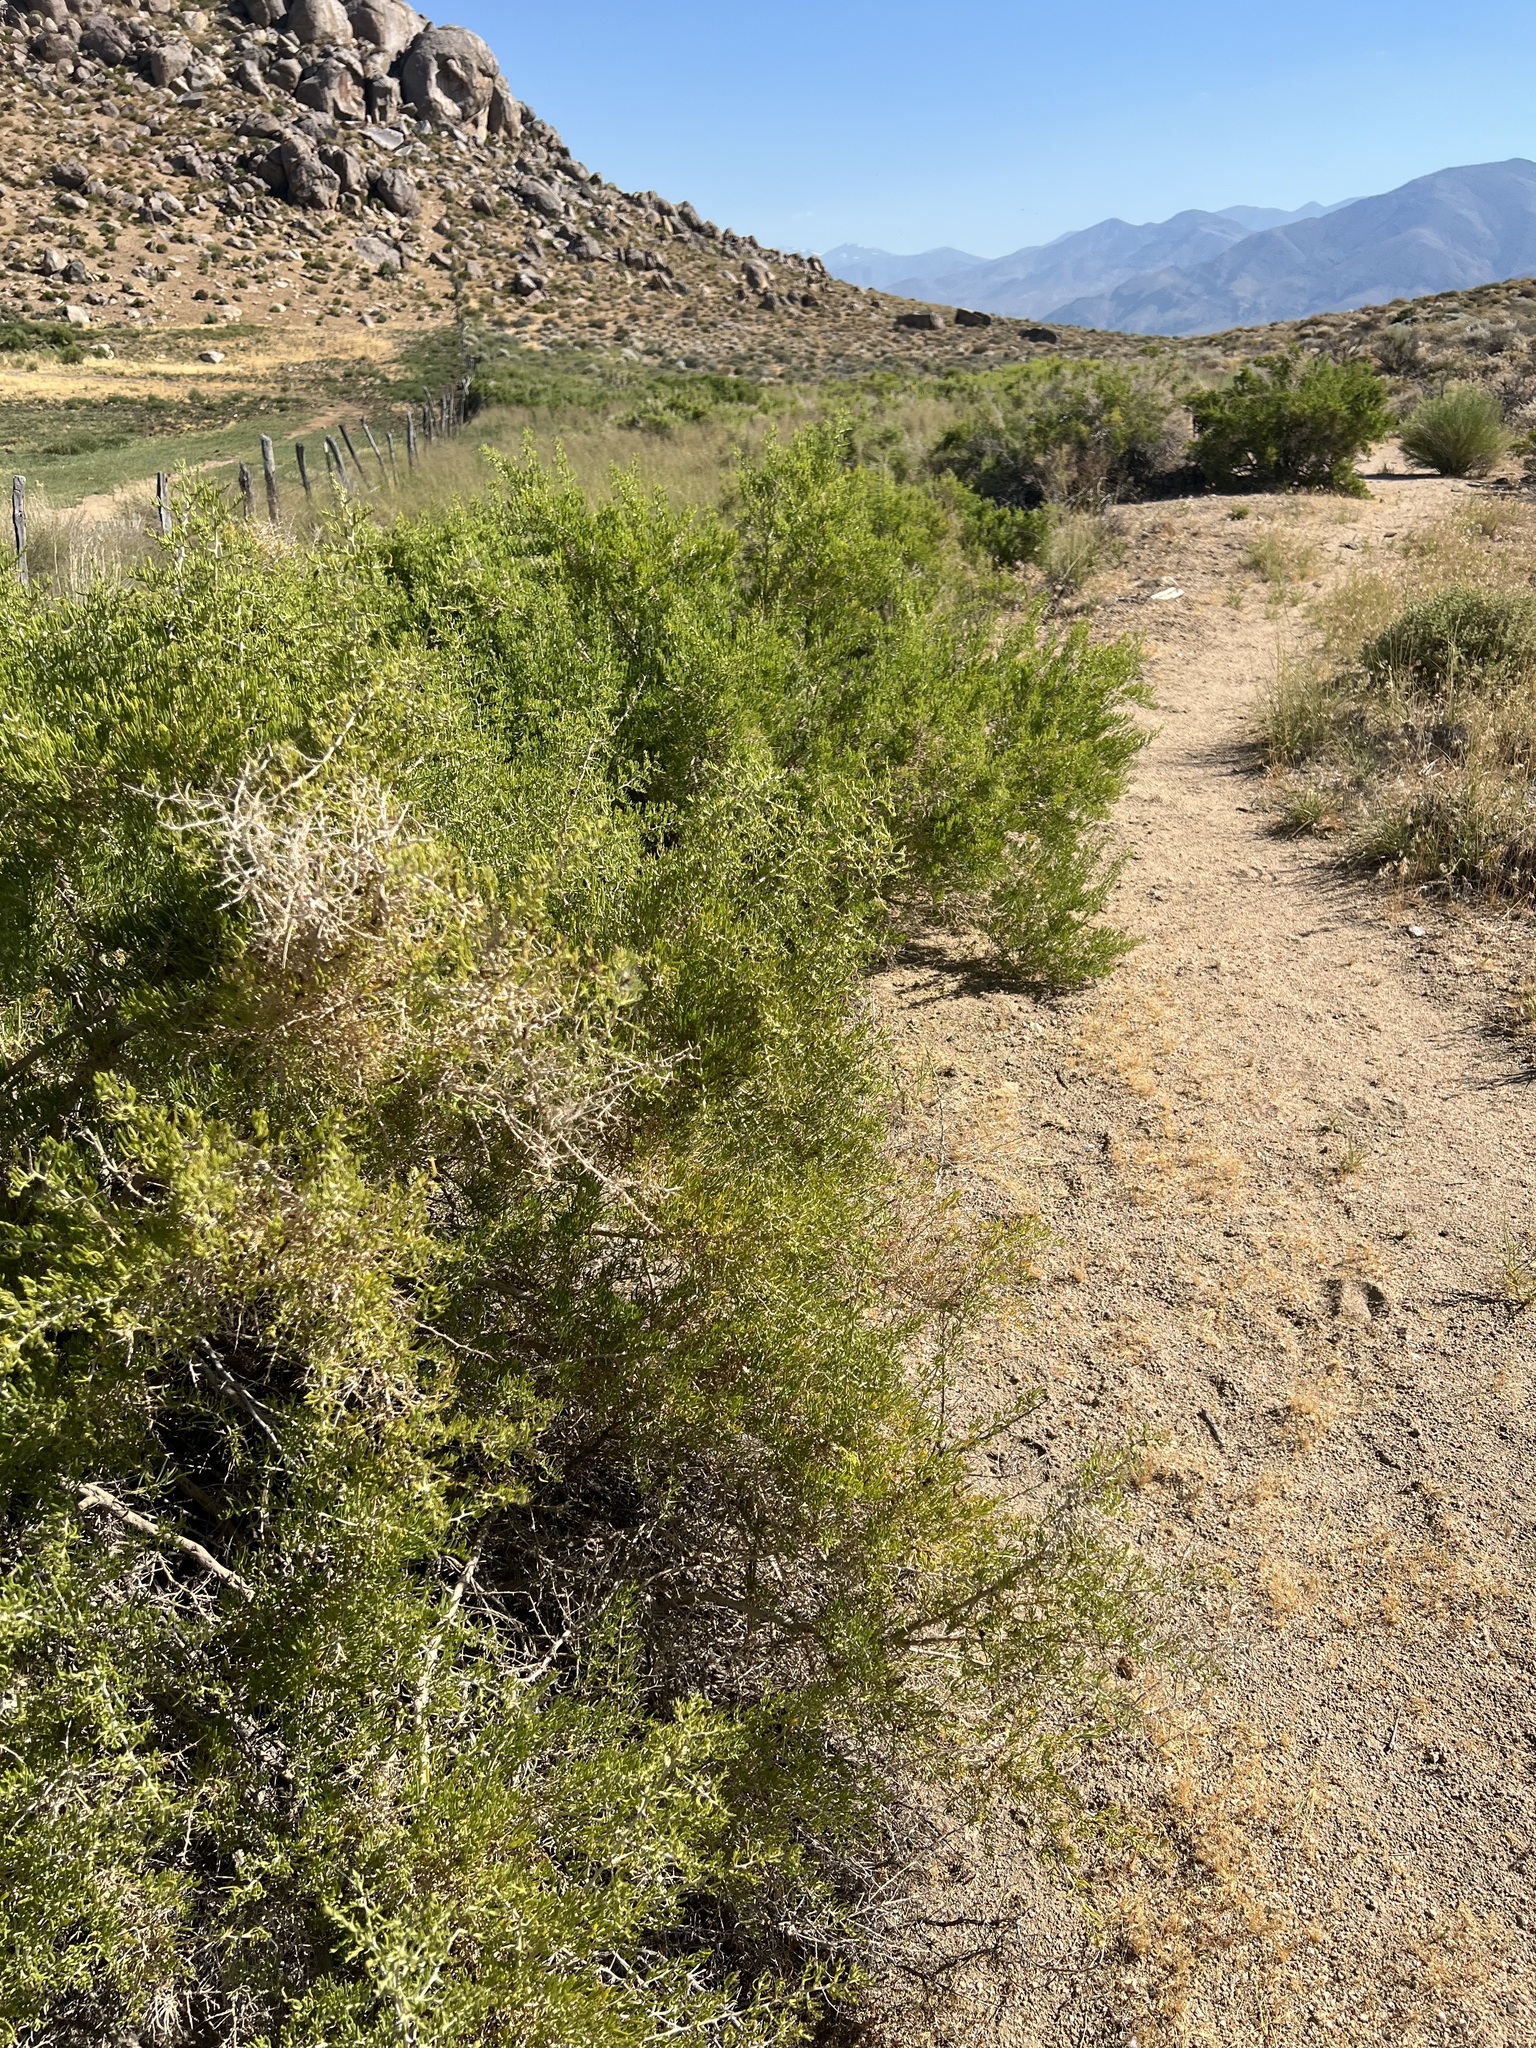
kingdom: Plantae
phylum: Tracheophyta
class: Magnoliopsida
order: Caryophyllales
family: Sarcobataceae
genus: Sarcobatus
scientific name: Sarcobatus vermiculatus
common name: Greasewood
